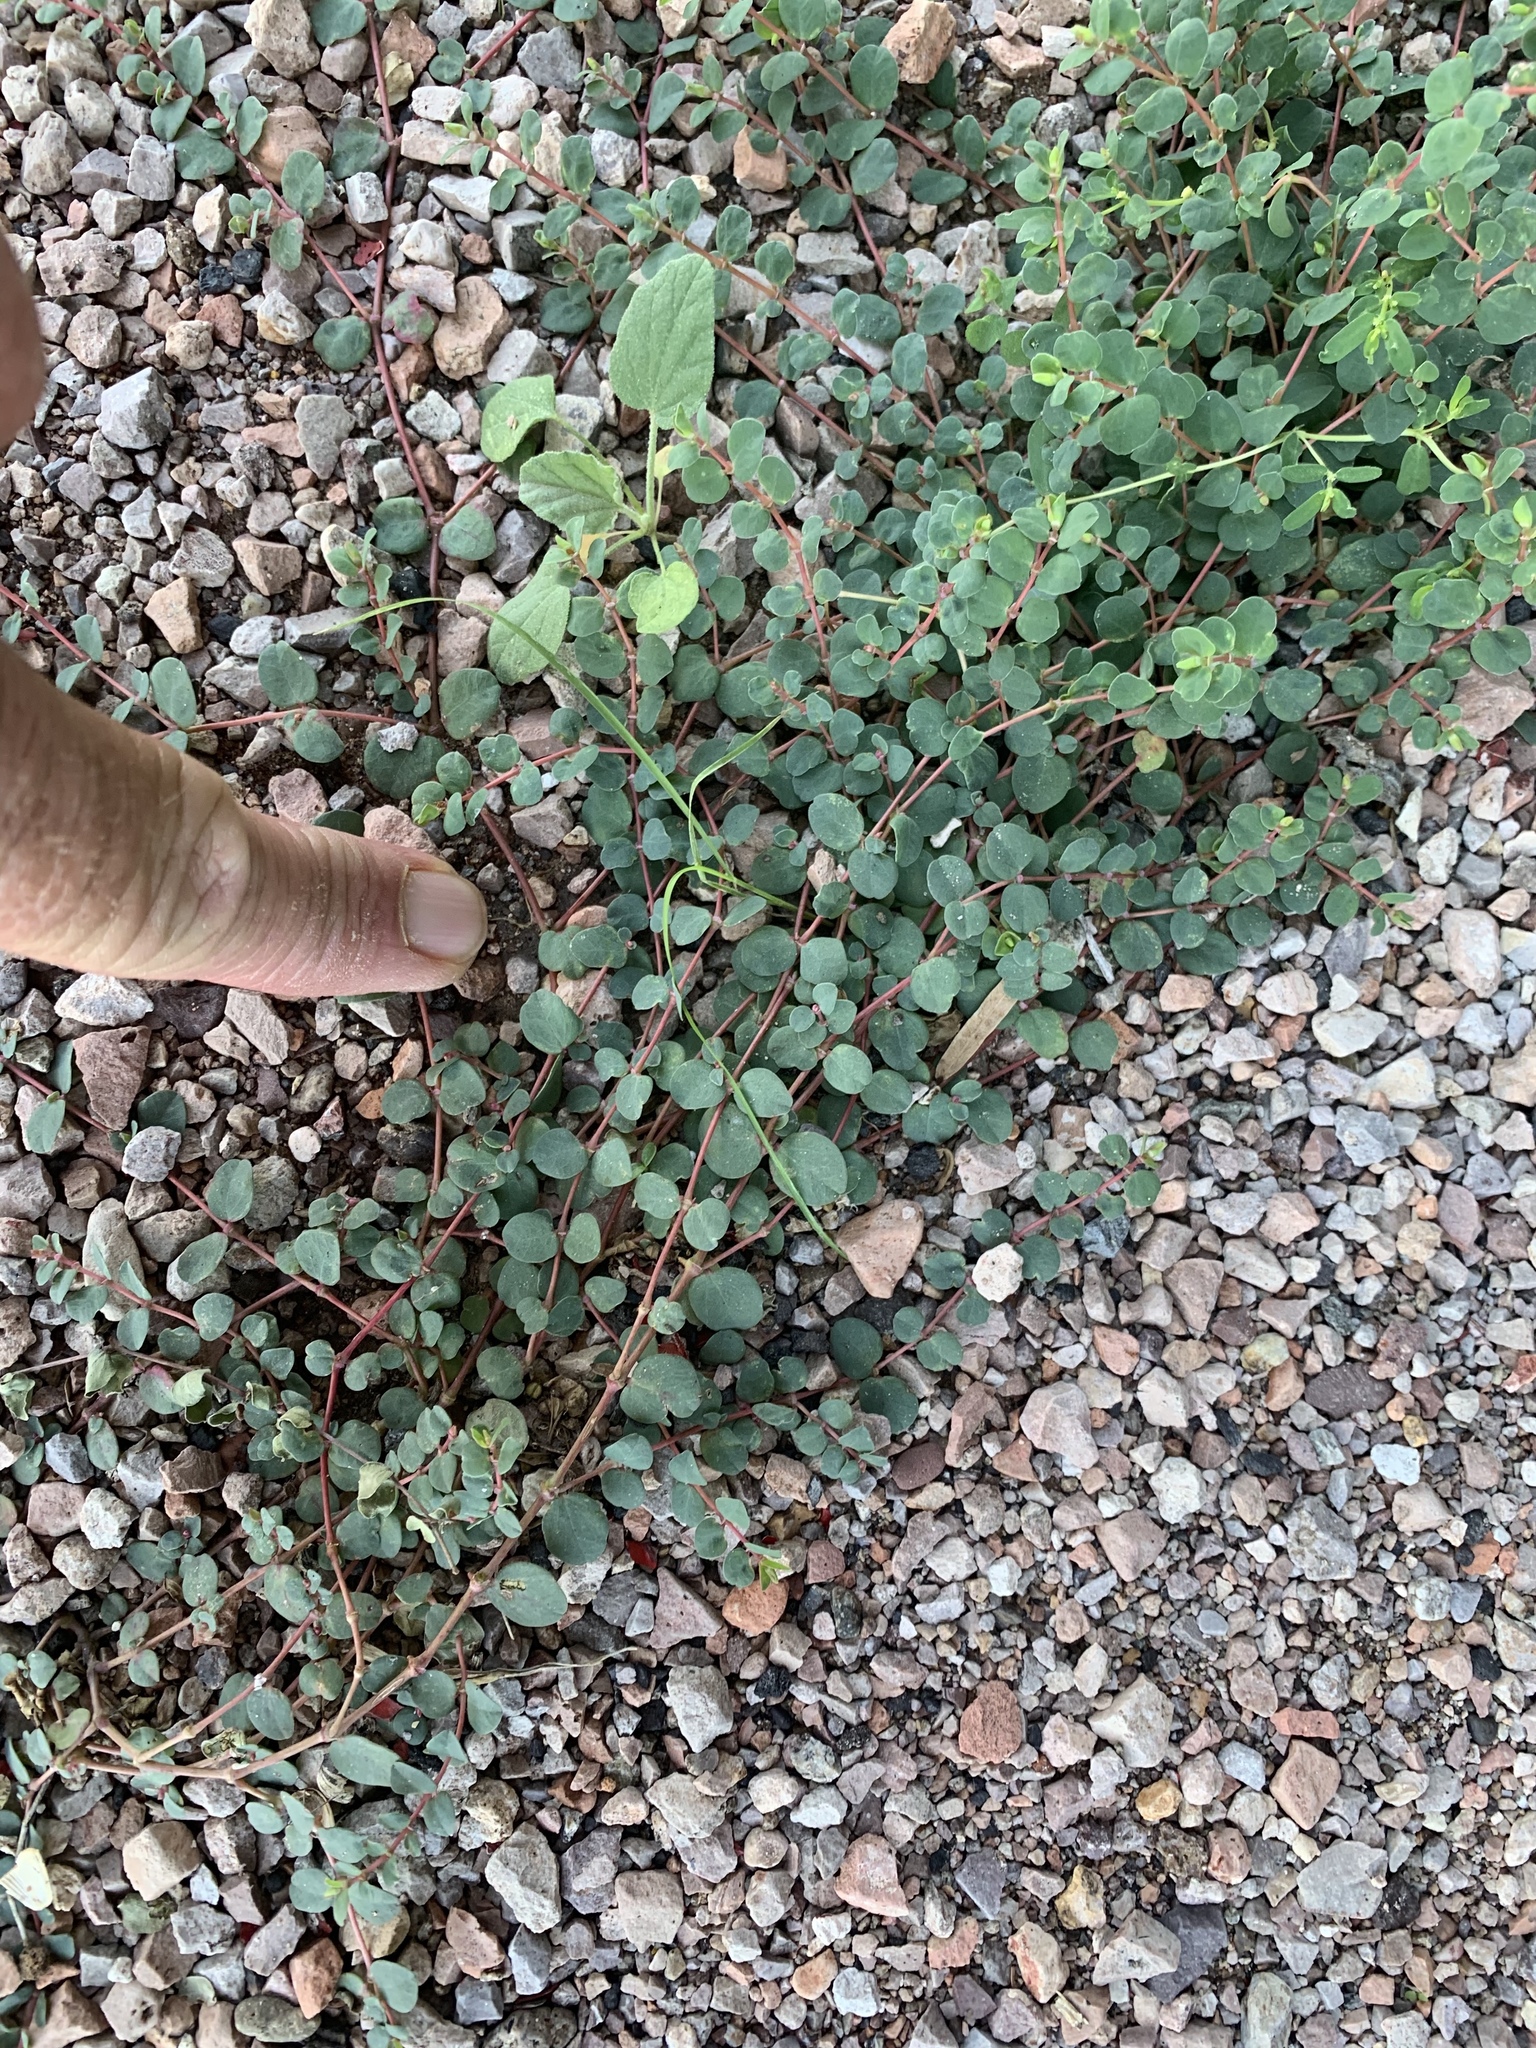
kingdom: Plantae
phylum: Tracheophyta
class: Magnoliopsida
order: Malpighiales
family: Euphorbiaceae
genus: Euphorbia
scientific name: Euphorbia albomarginata
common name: Whitemargin sandmat
